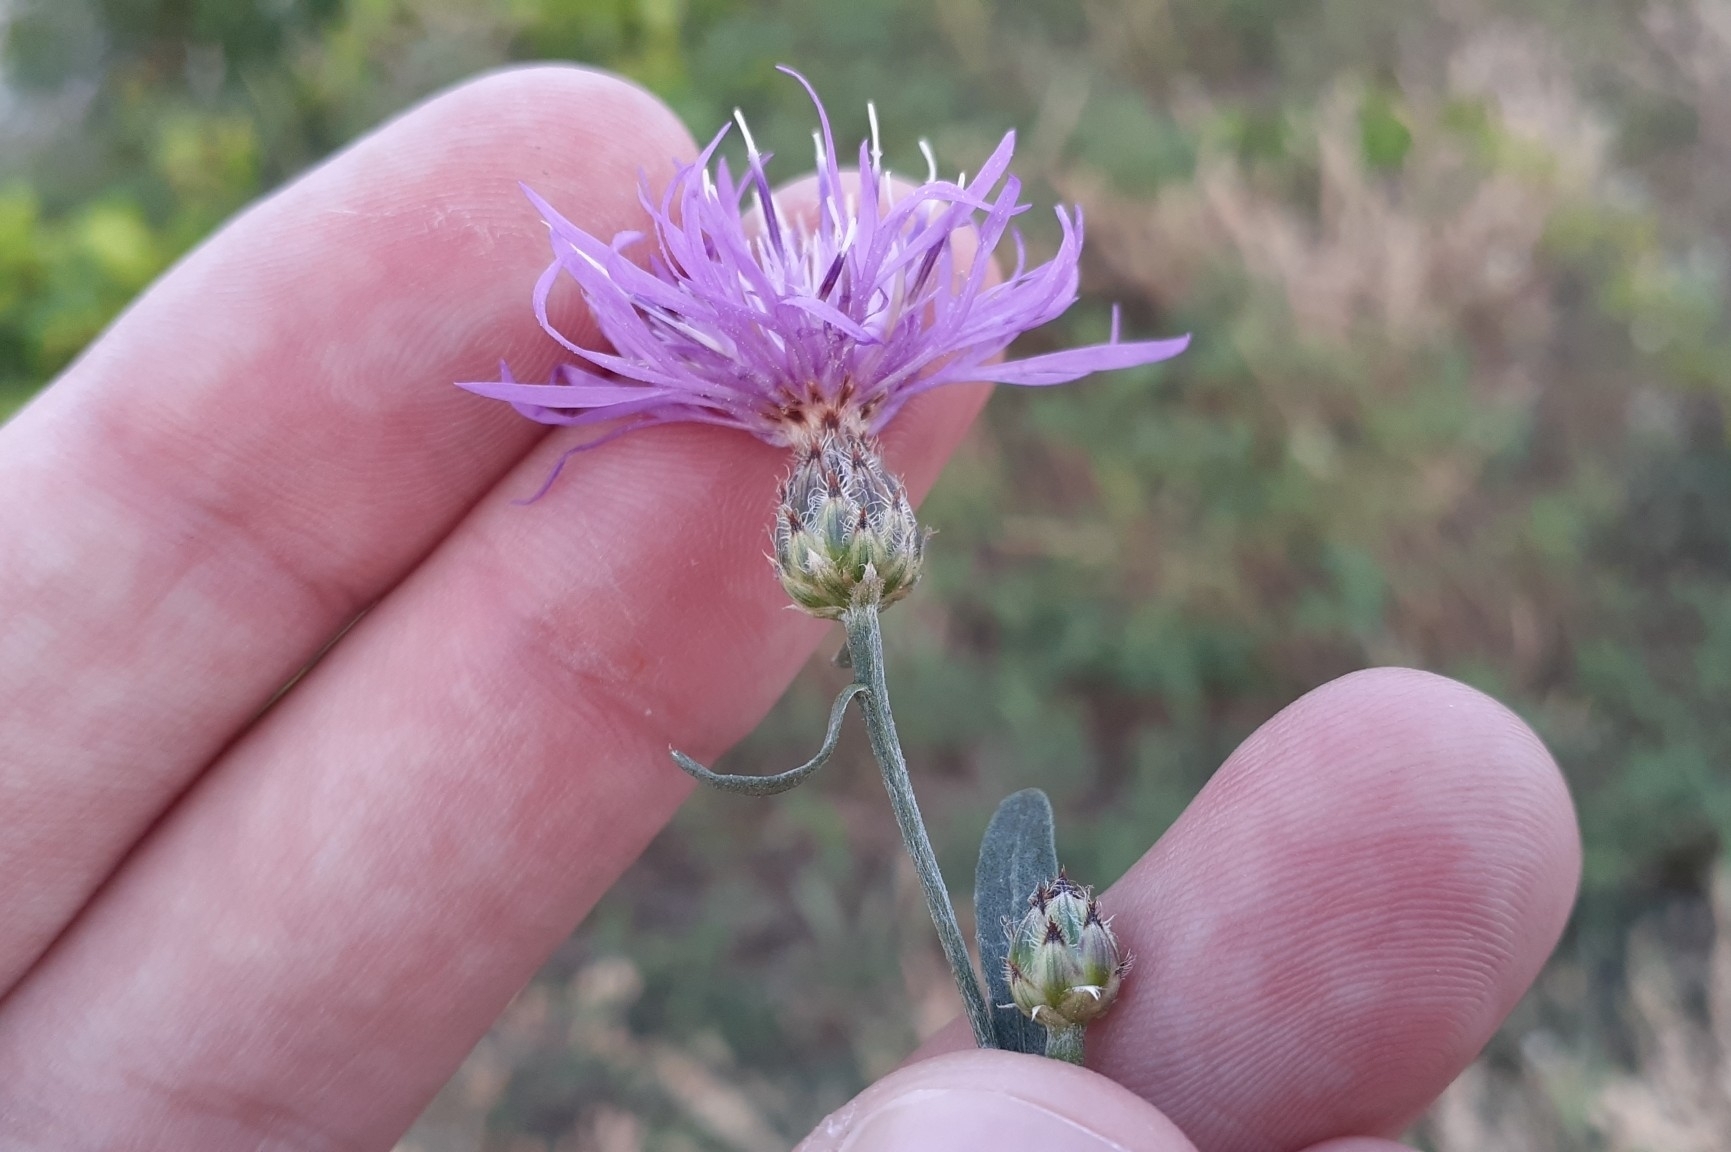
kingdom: Plantae
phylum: Tracheophyta
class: Magnoliopsida
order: Asterales
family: Asteraceae
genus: Centaurea
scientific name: Centaurea stoebe
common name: Spotted knapweed
